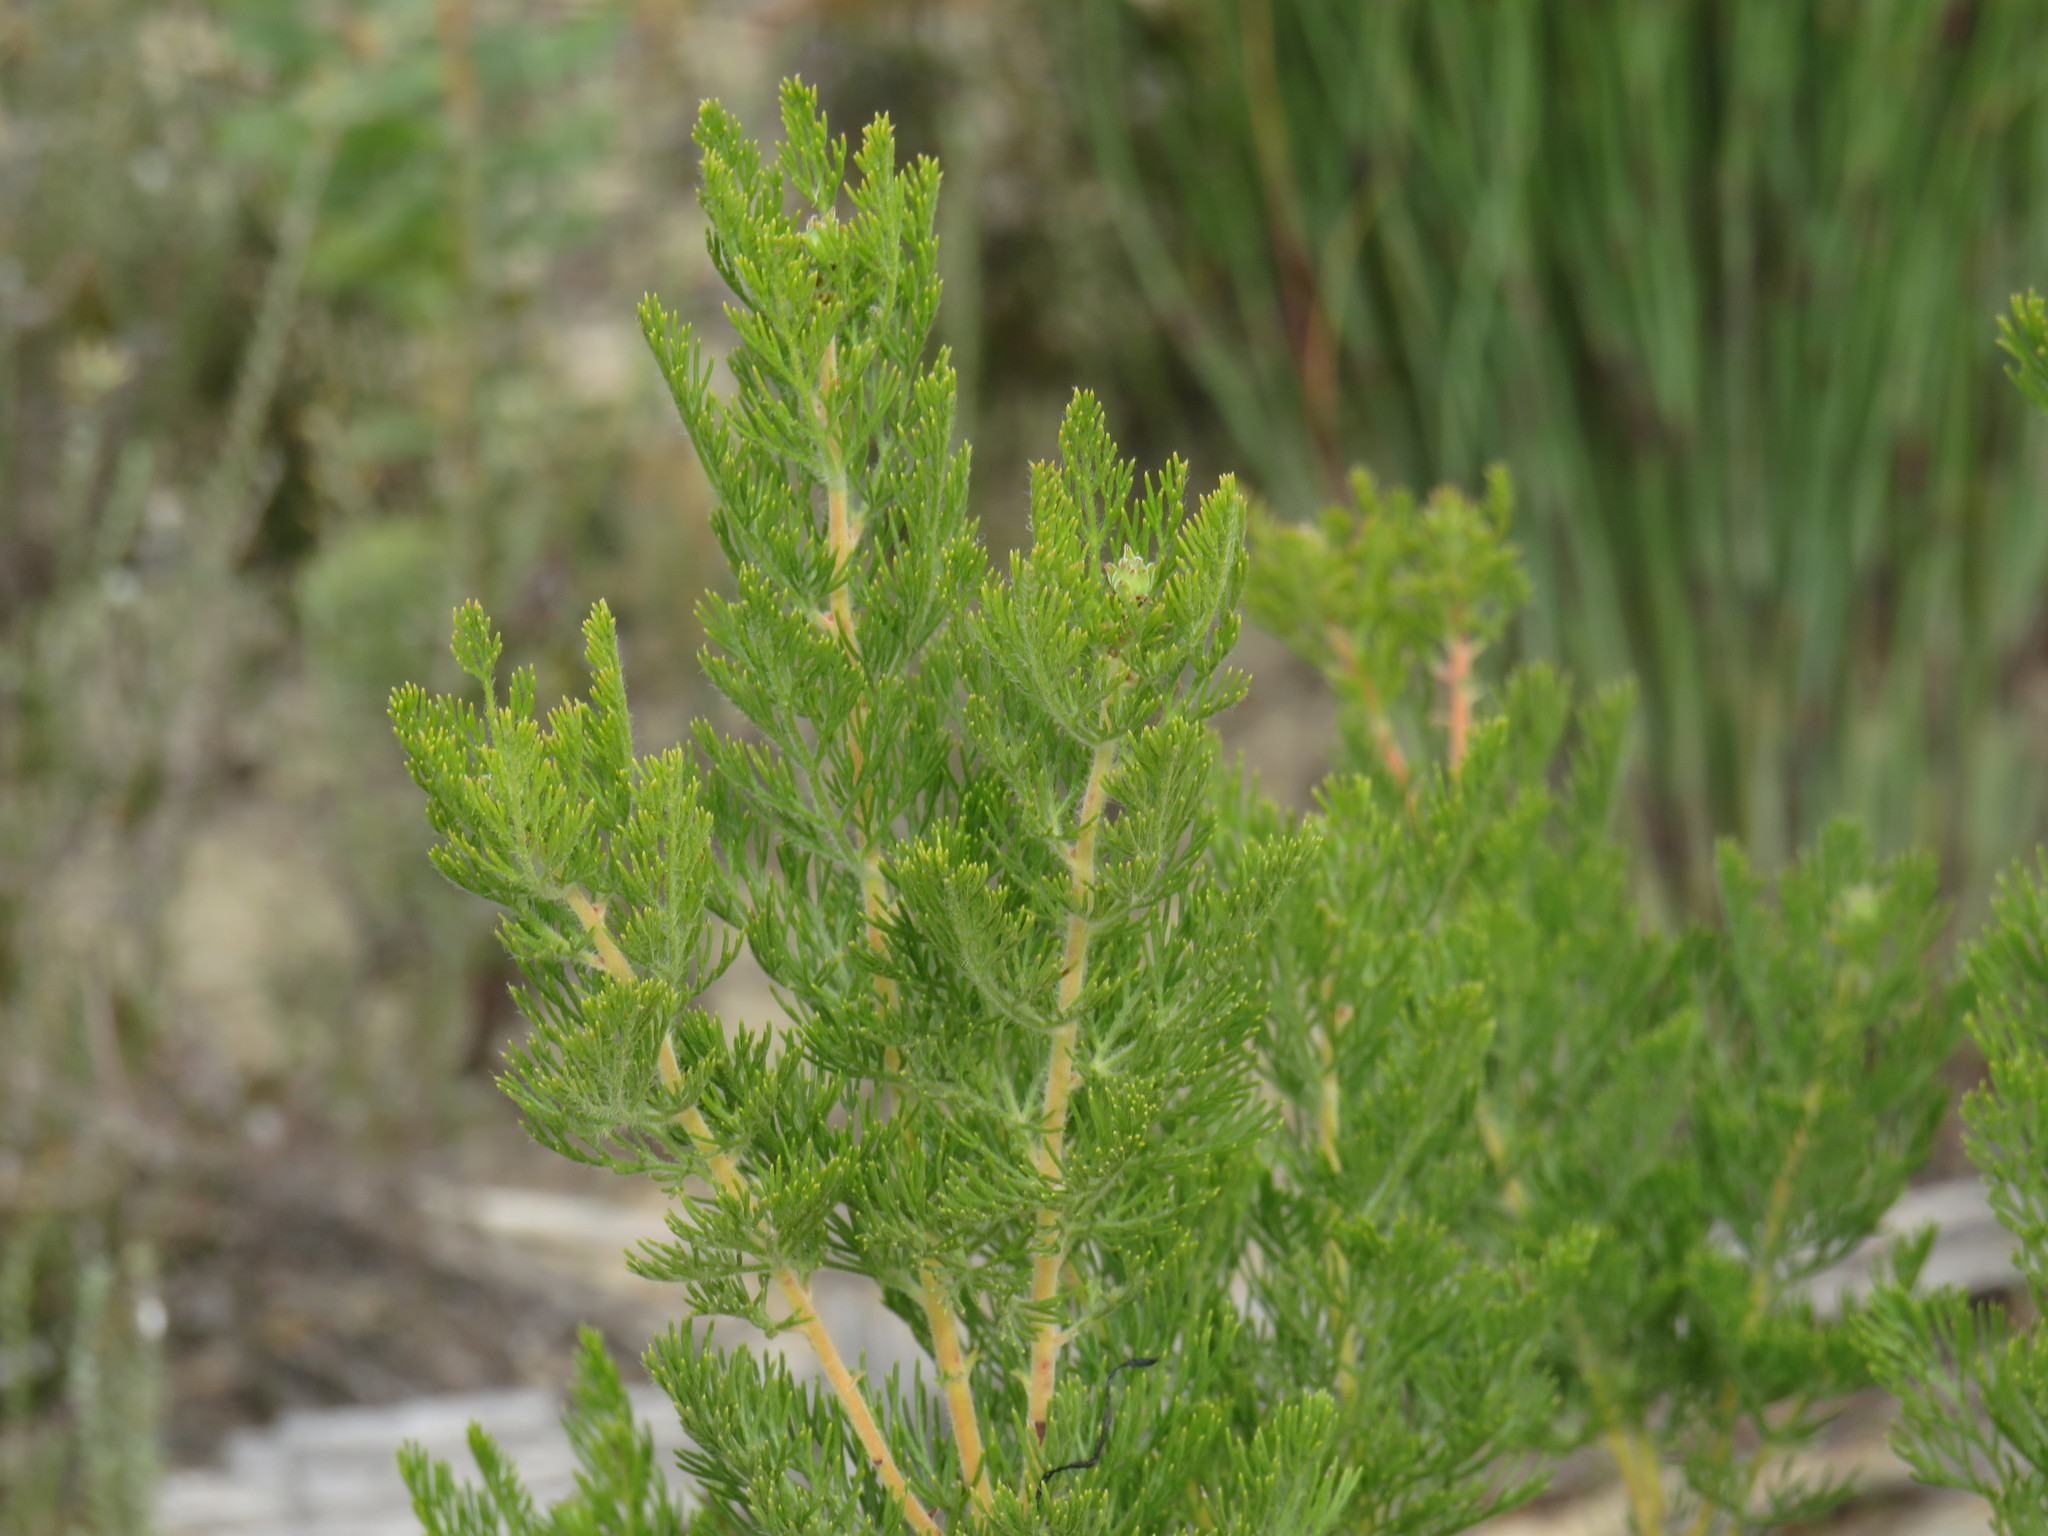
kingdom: Plantae
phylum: Tracheophyta
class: Magnoliopsida
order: Proteales
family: Proteaceae
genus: Paranomus
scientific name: Paranomus lagopus
